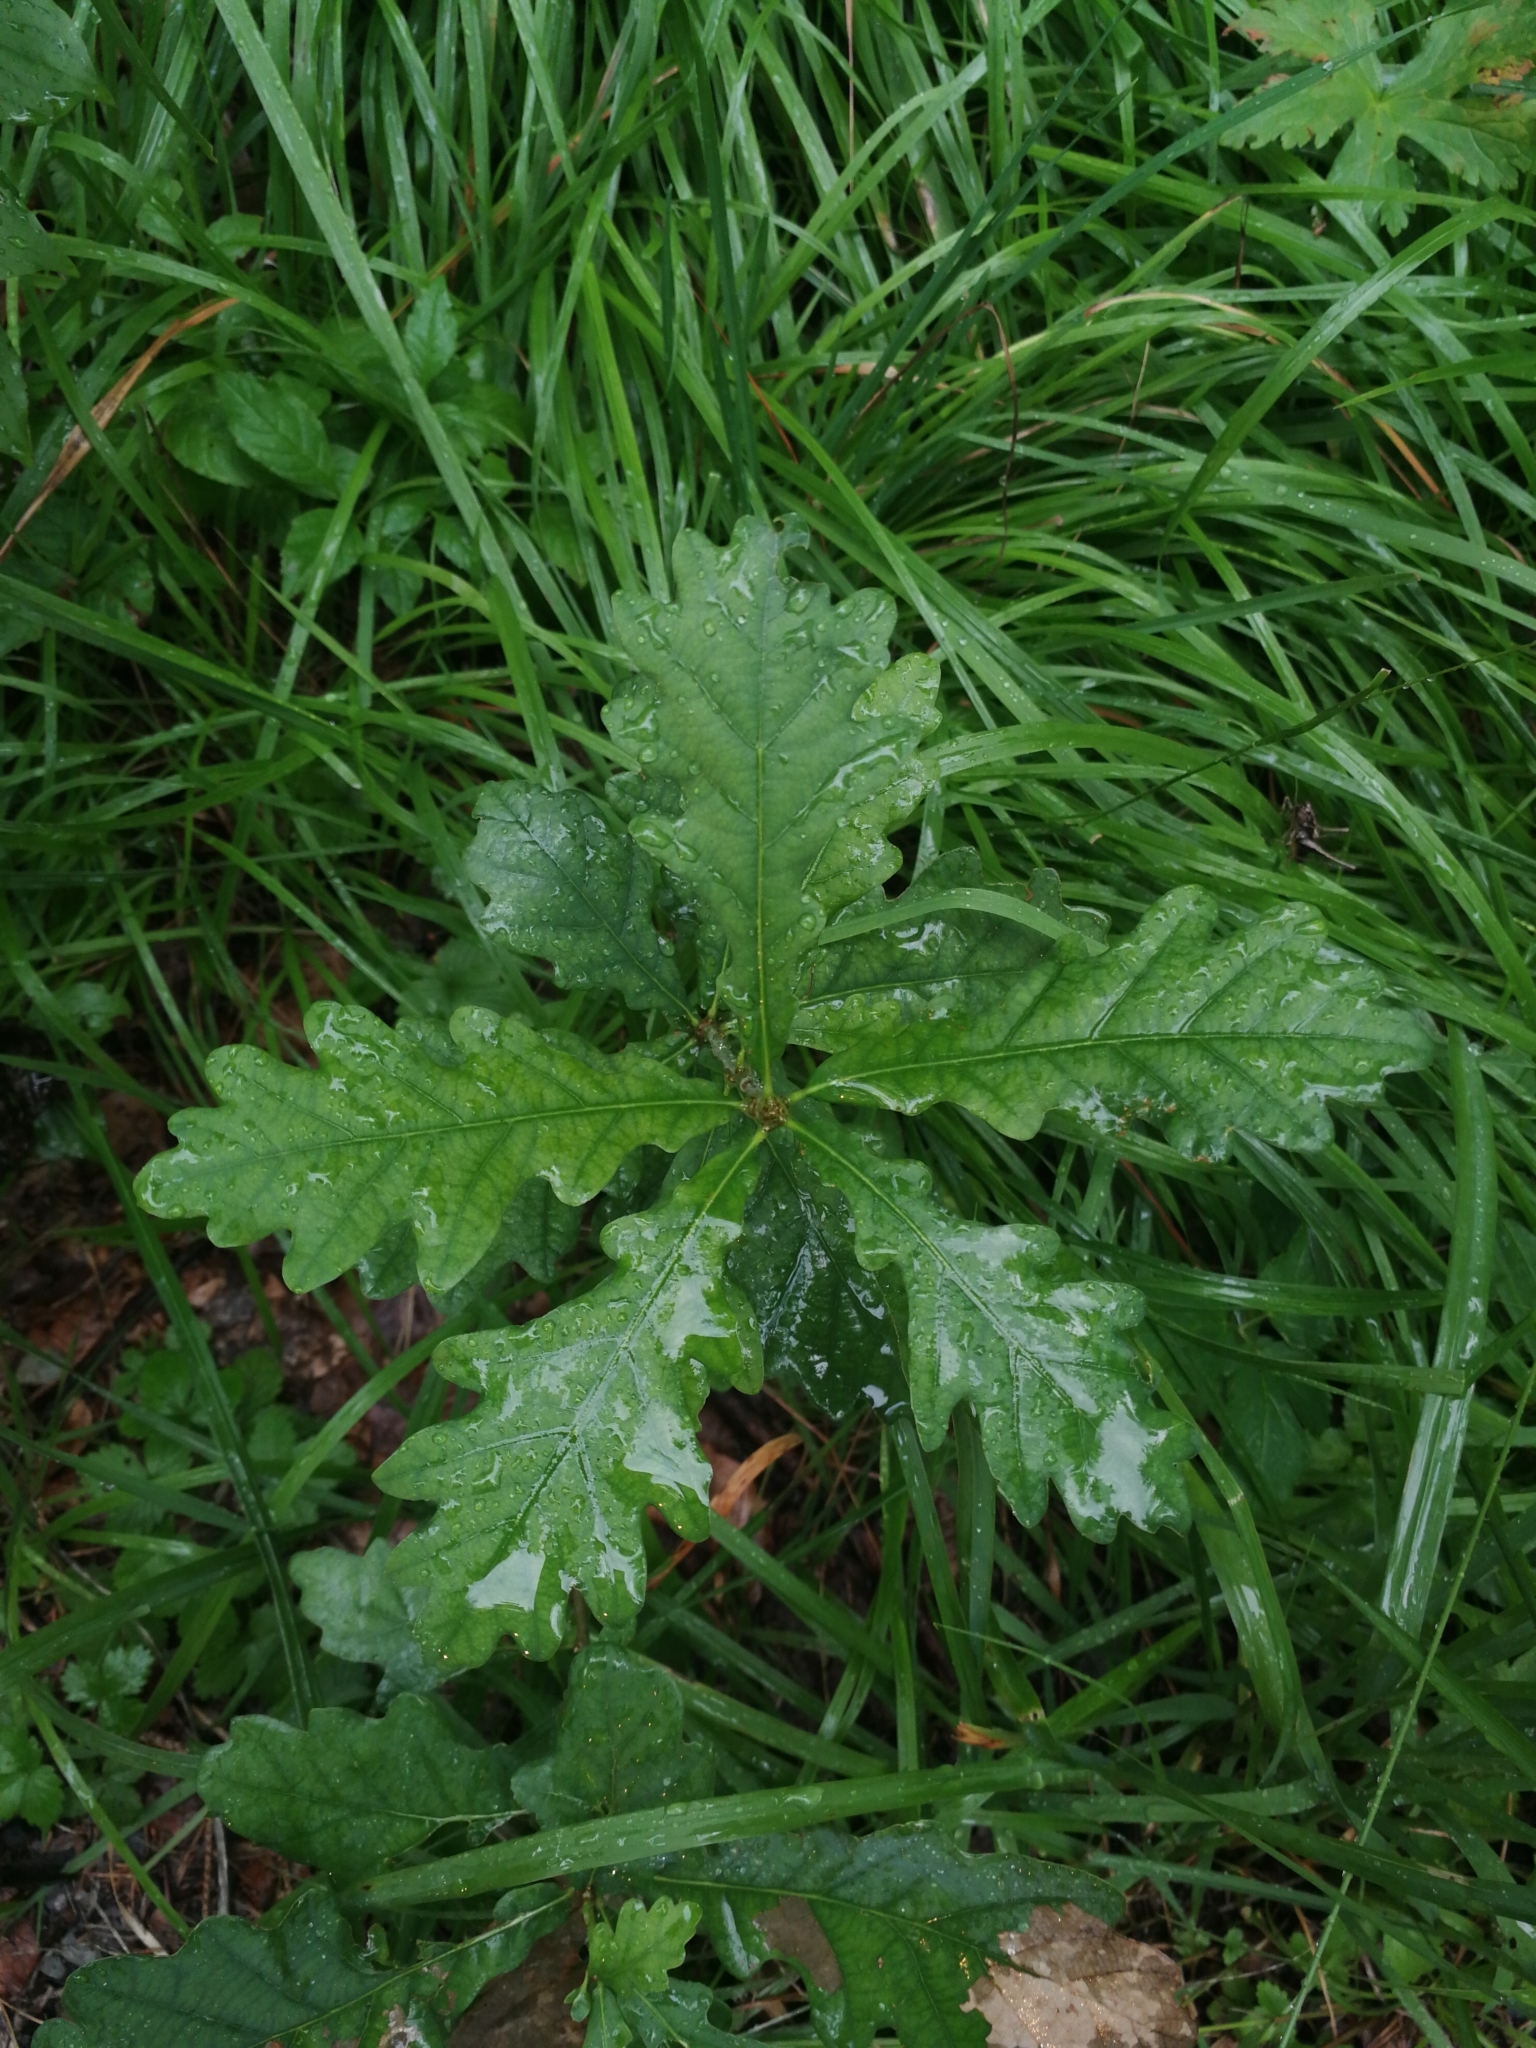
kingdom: Plantae
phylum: Tracheophyta
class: Magnoliopsida
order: Fagales
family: Fagaceae
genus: Quercus
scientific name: Quercus robur
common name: Pedunculate oak
